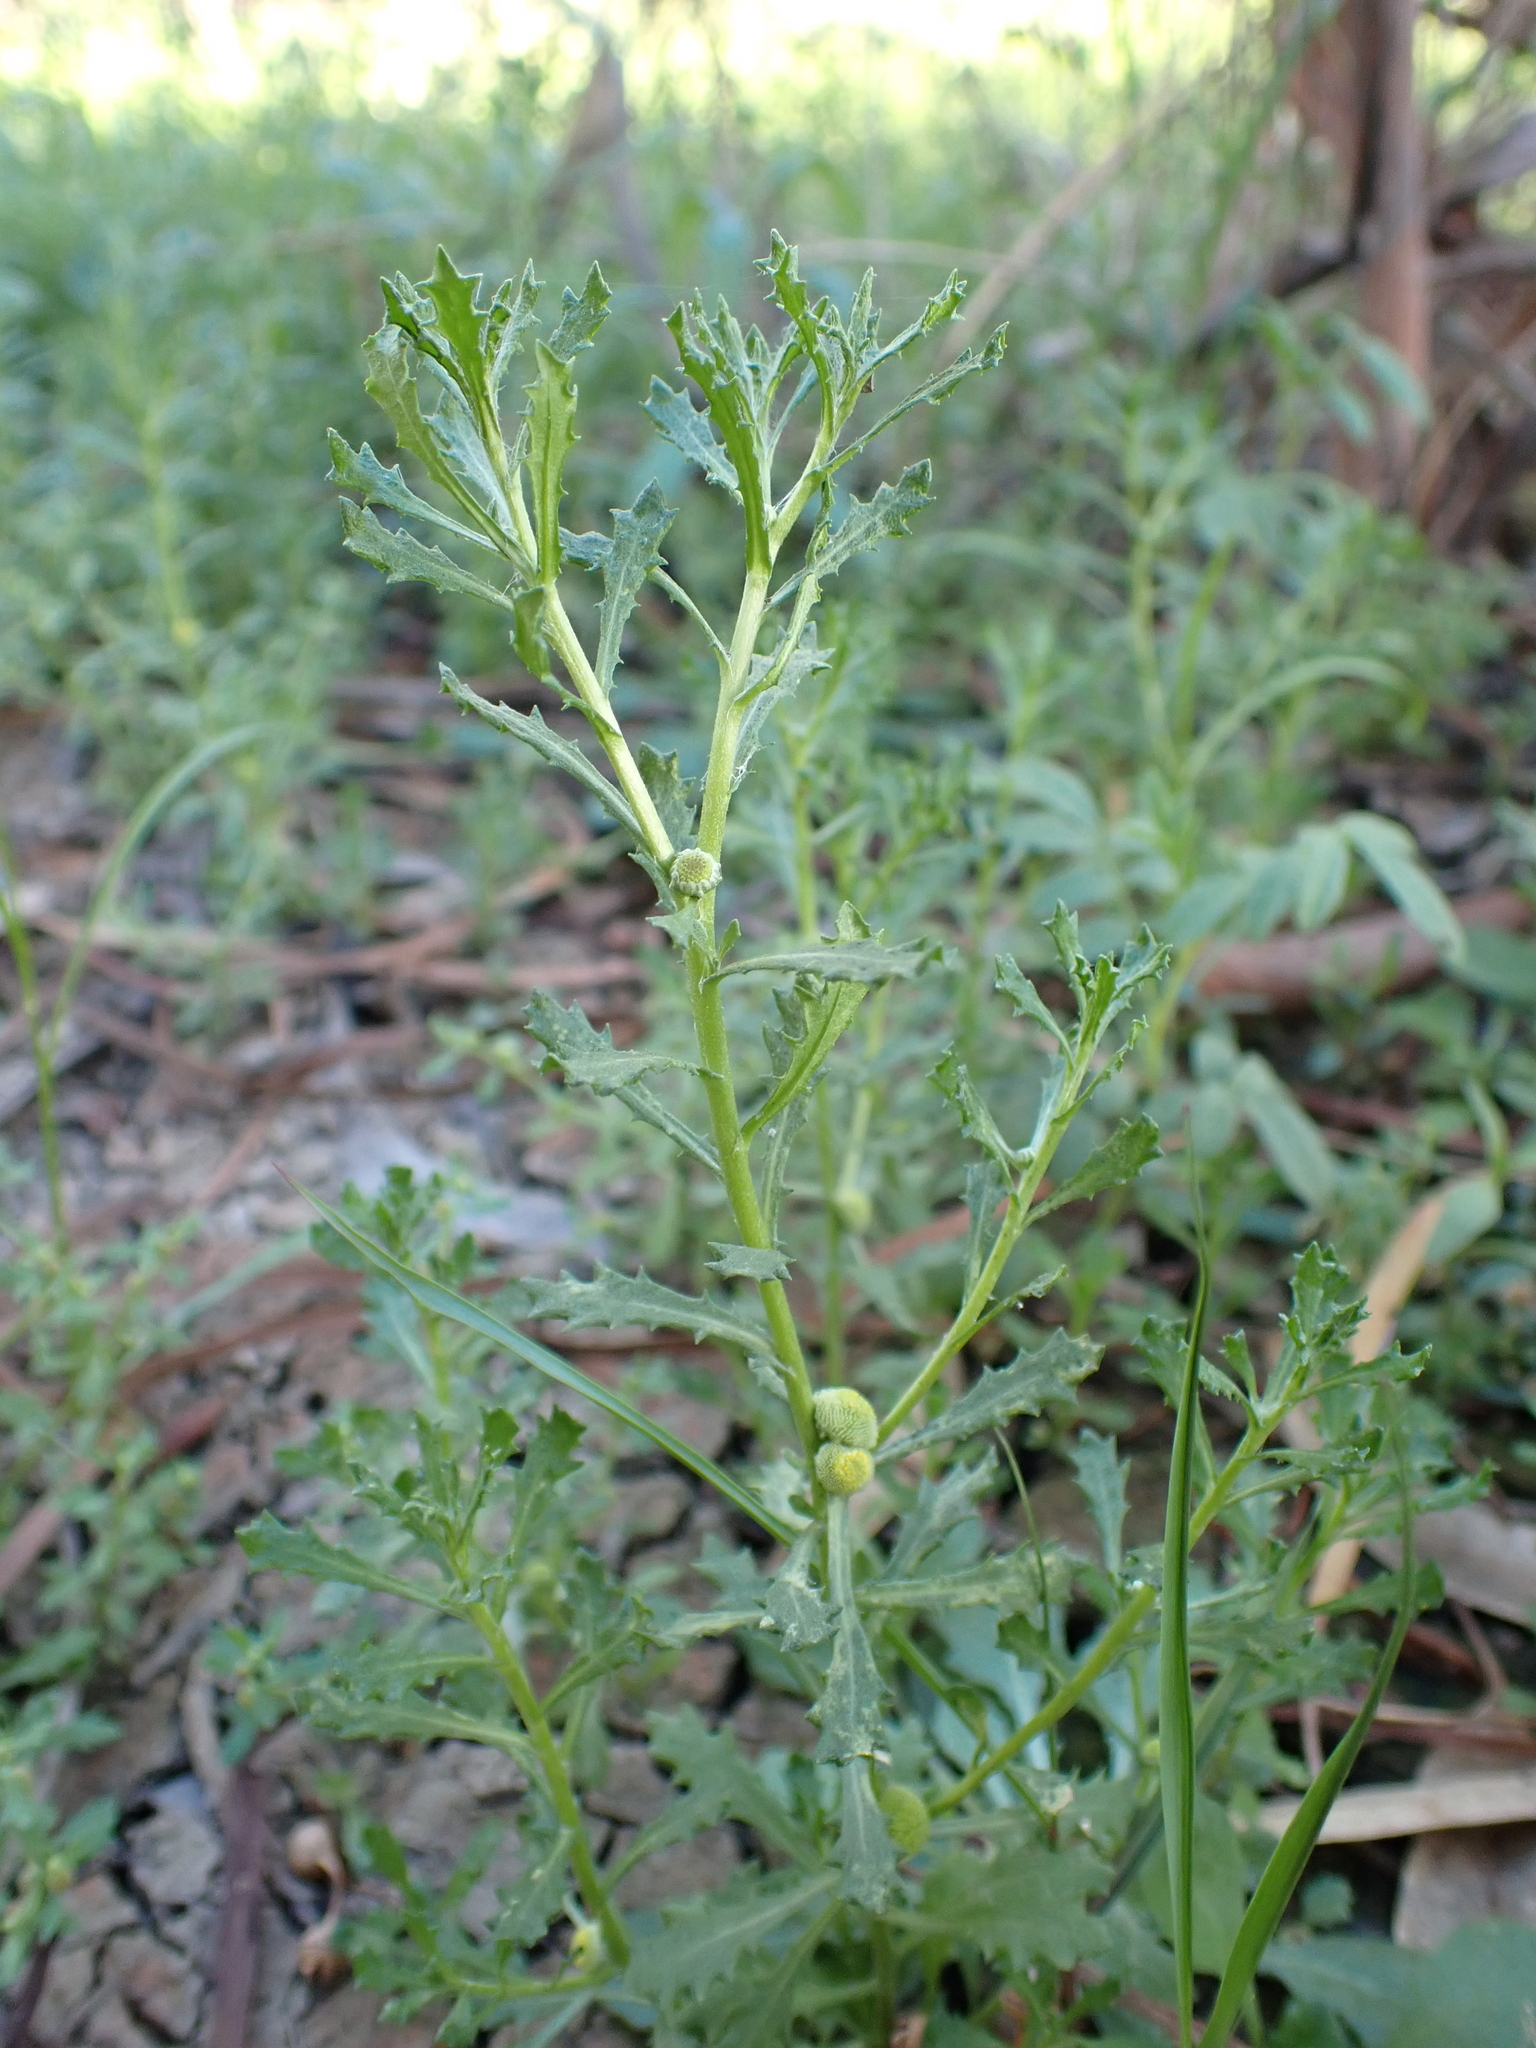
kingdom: Plantae
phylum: Tracheophyta
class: Magnoliopsida
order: Asterales
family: Asteraceae
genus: Centipeda
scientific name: Centipeda cunninghamii
